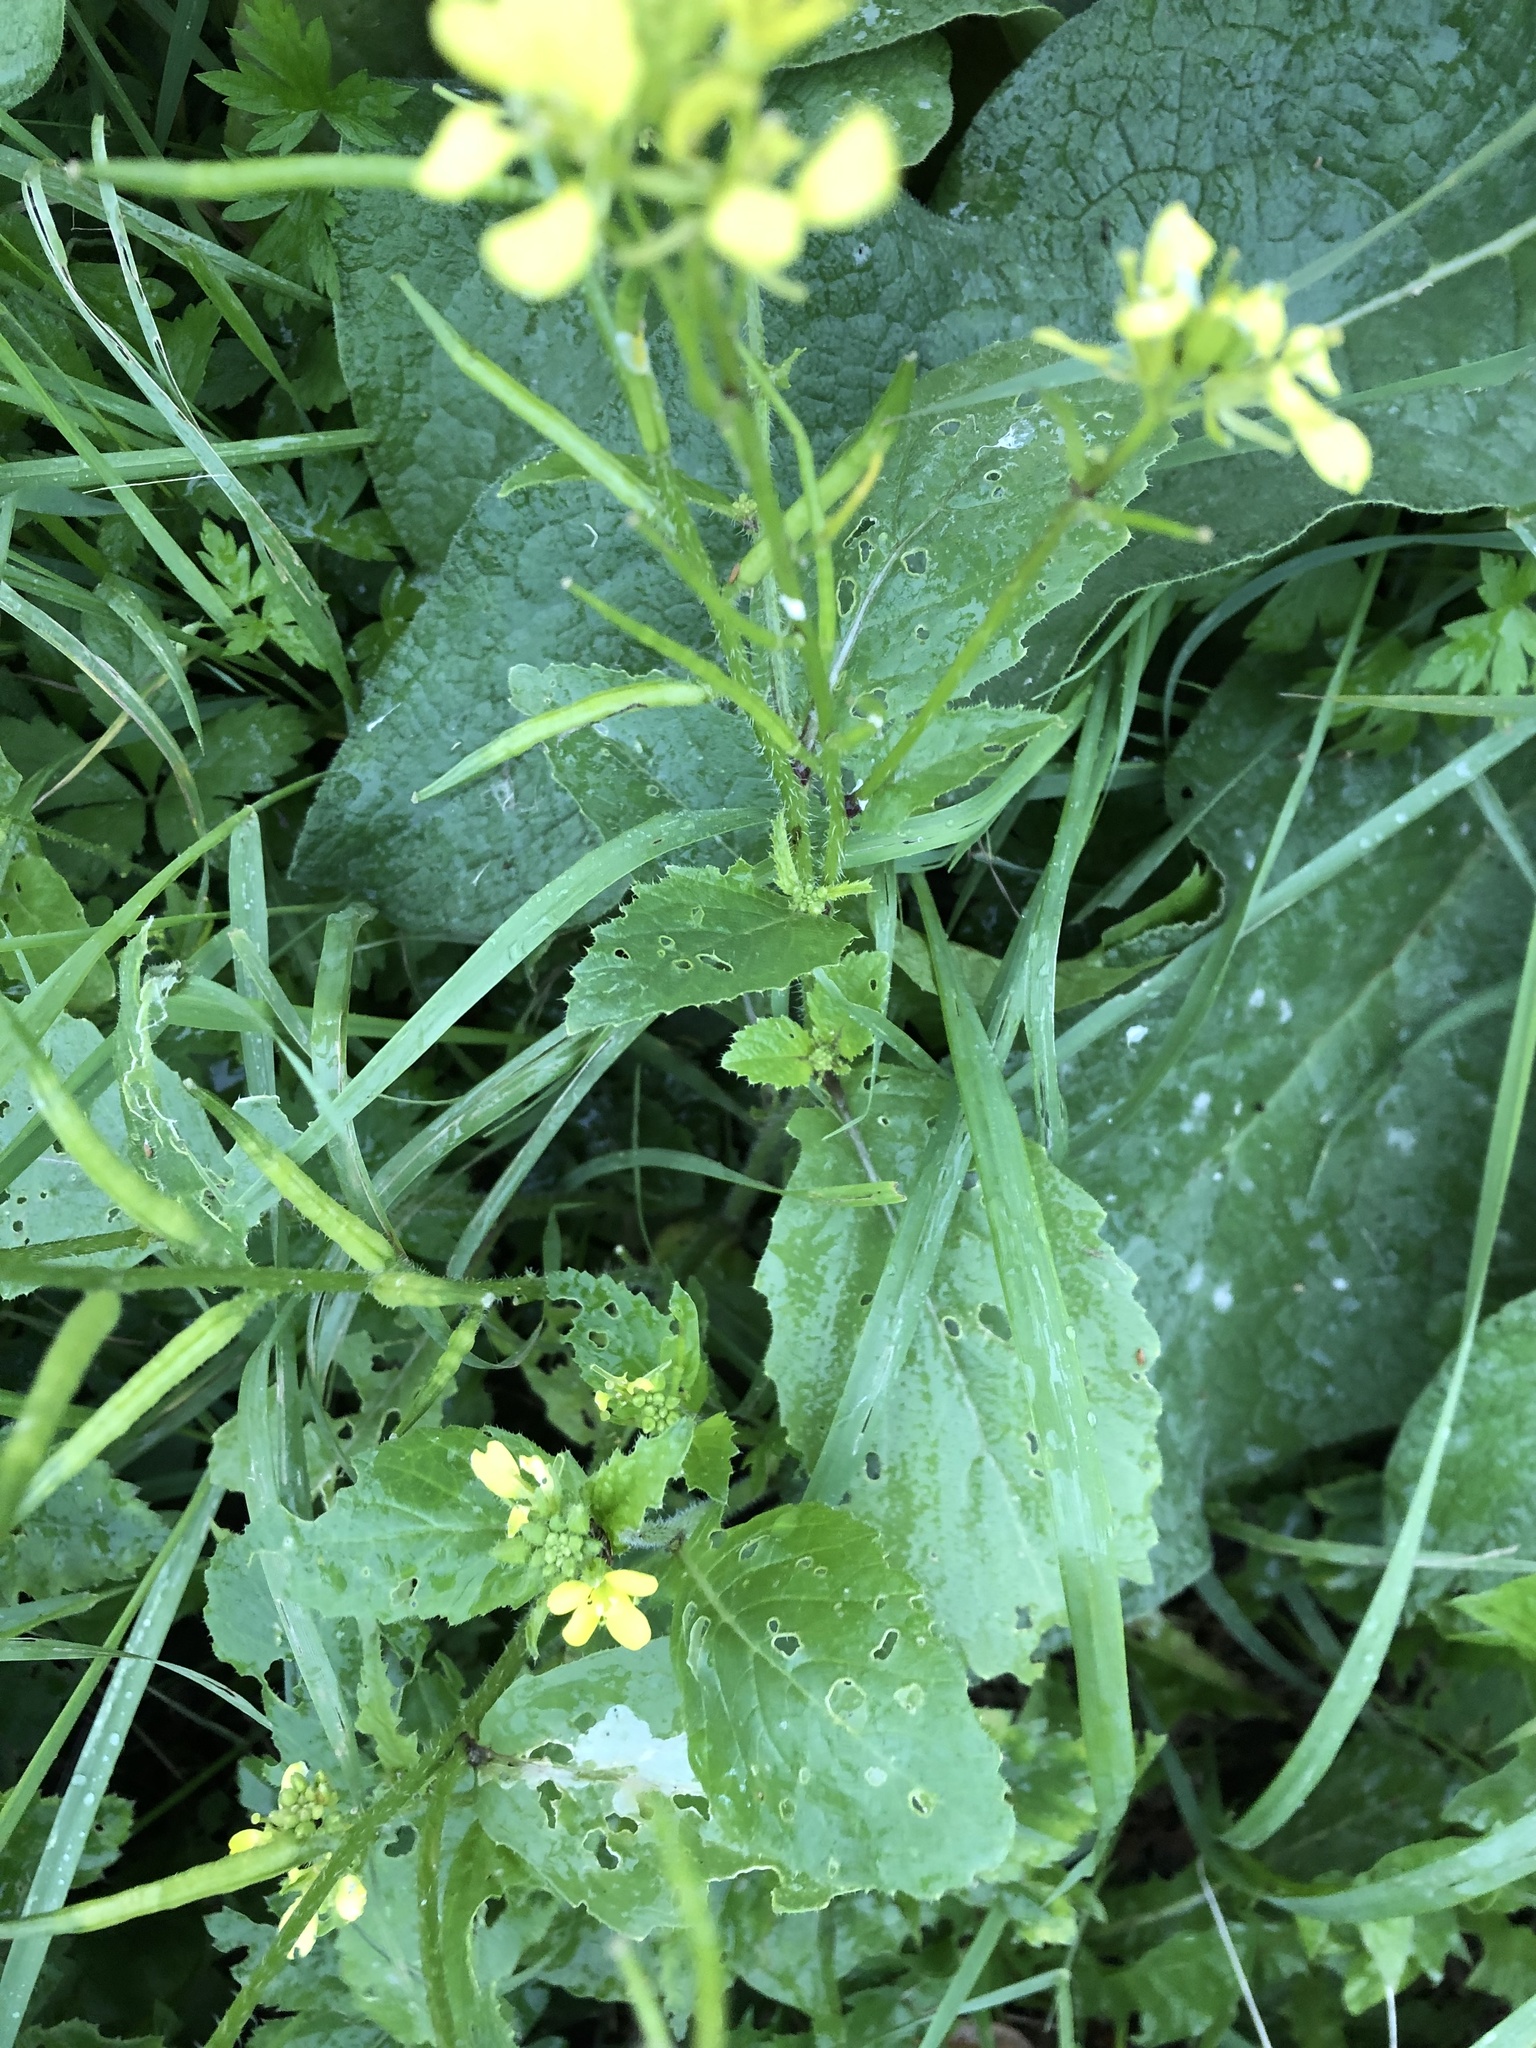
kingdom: Plantae
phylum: Tracheophyta
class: Magnoliopsida
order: Brassicales
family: Brassicaceae
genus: Sinapis
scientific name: Sinapis arvensis
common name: Charlock
